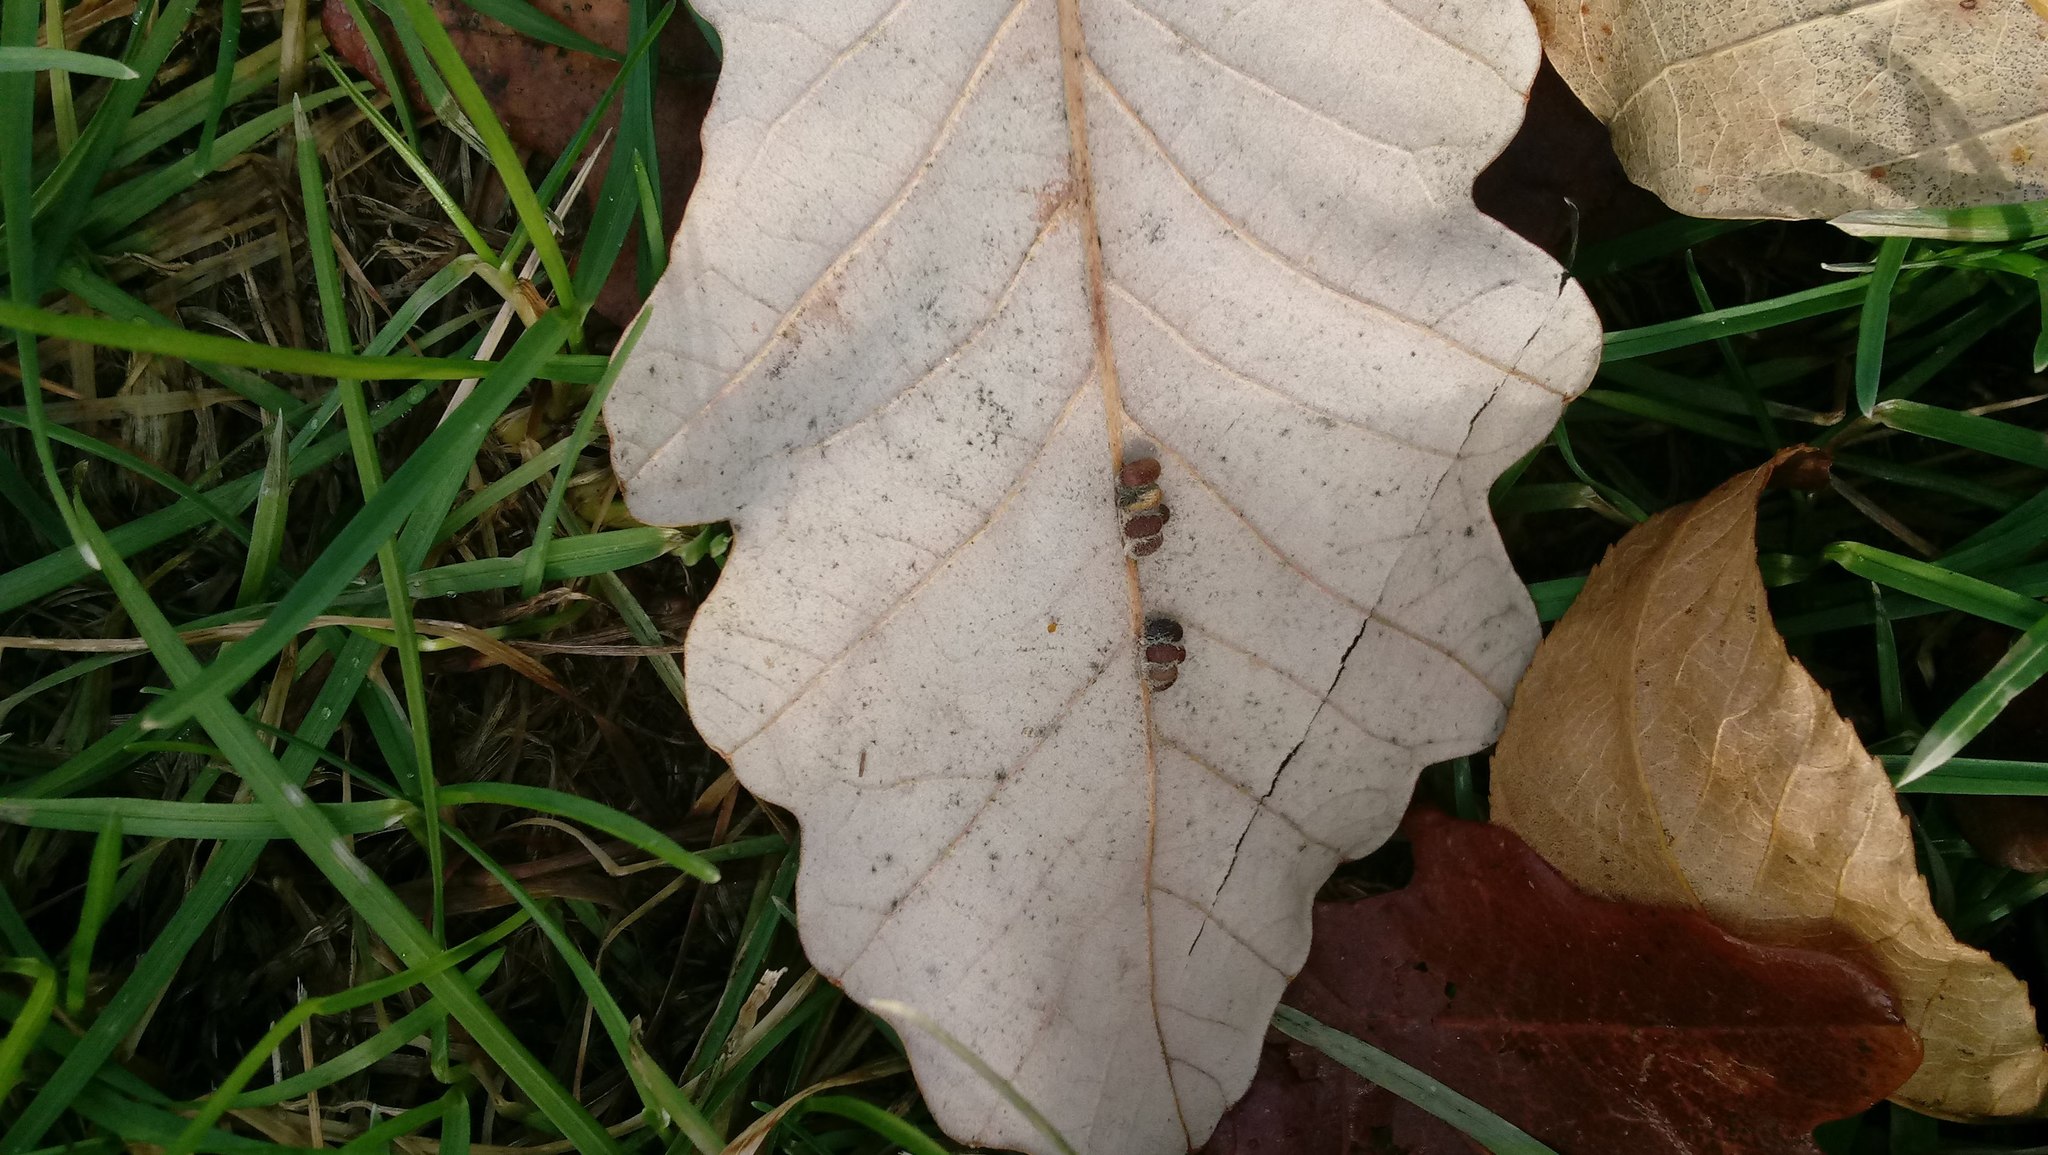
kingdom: Animalia
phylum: Arthropoda
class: Insecta
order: Hymenoptera
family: Cynipidae
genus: Andricus
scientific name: Andricus Druon ignotum
